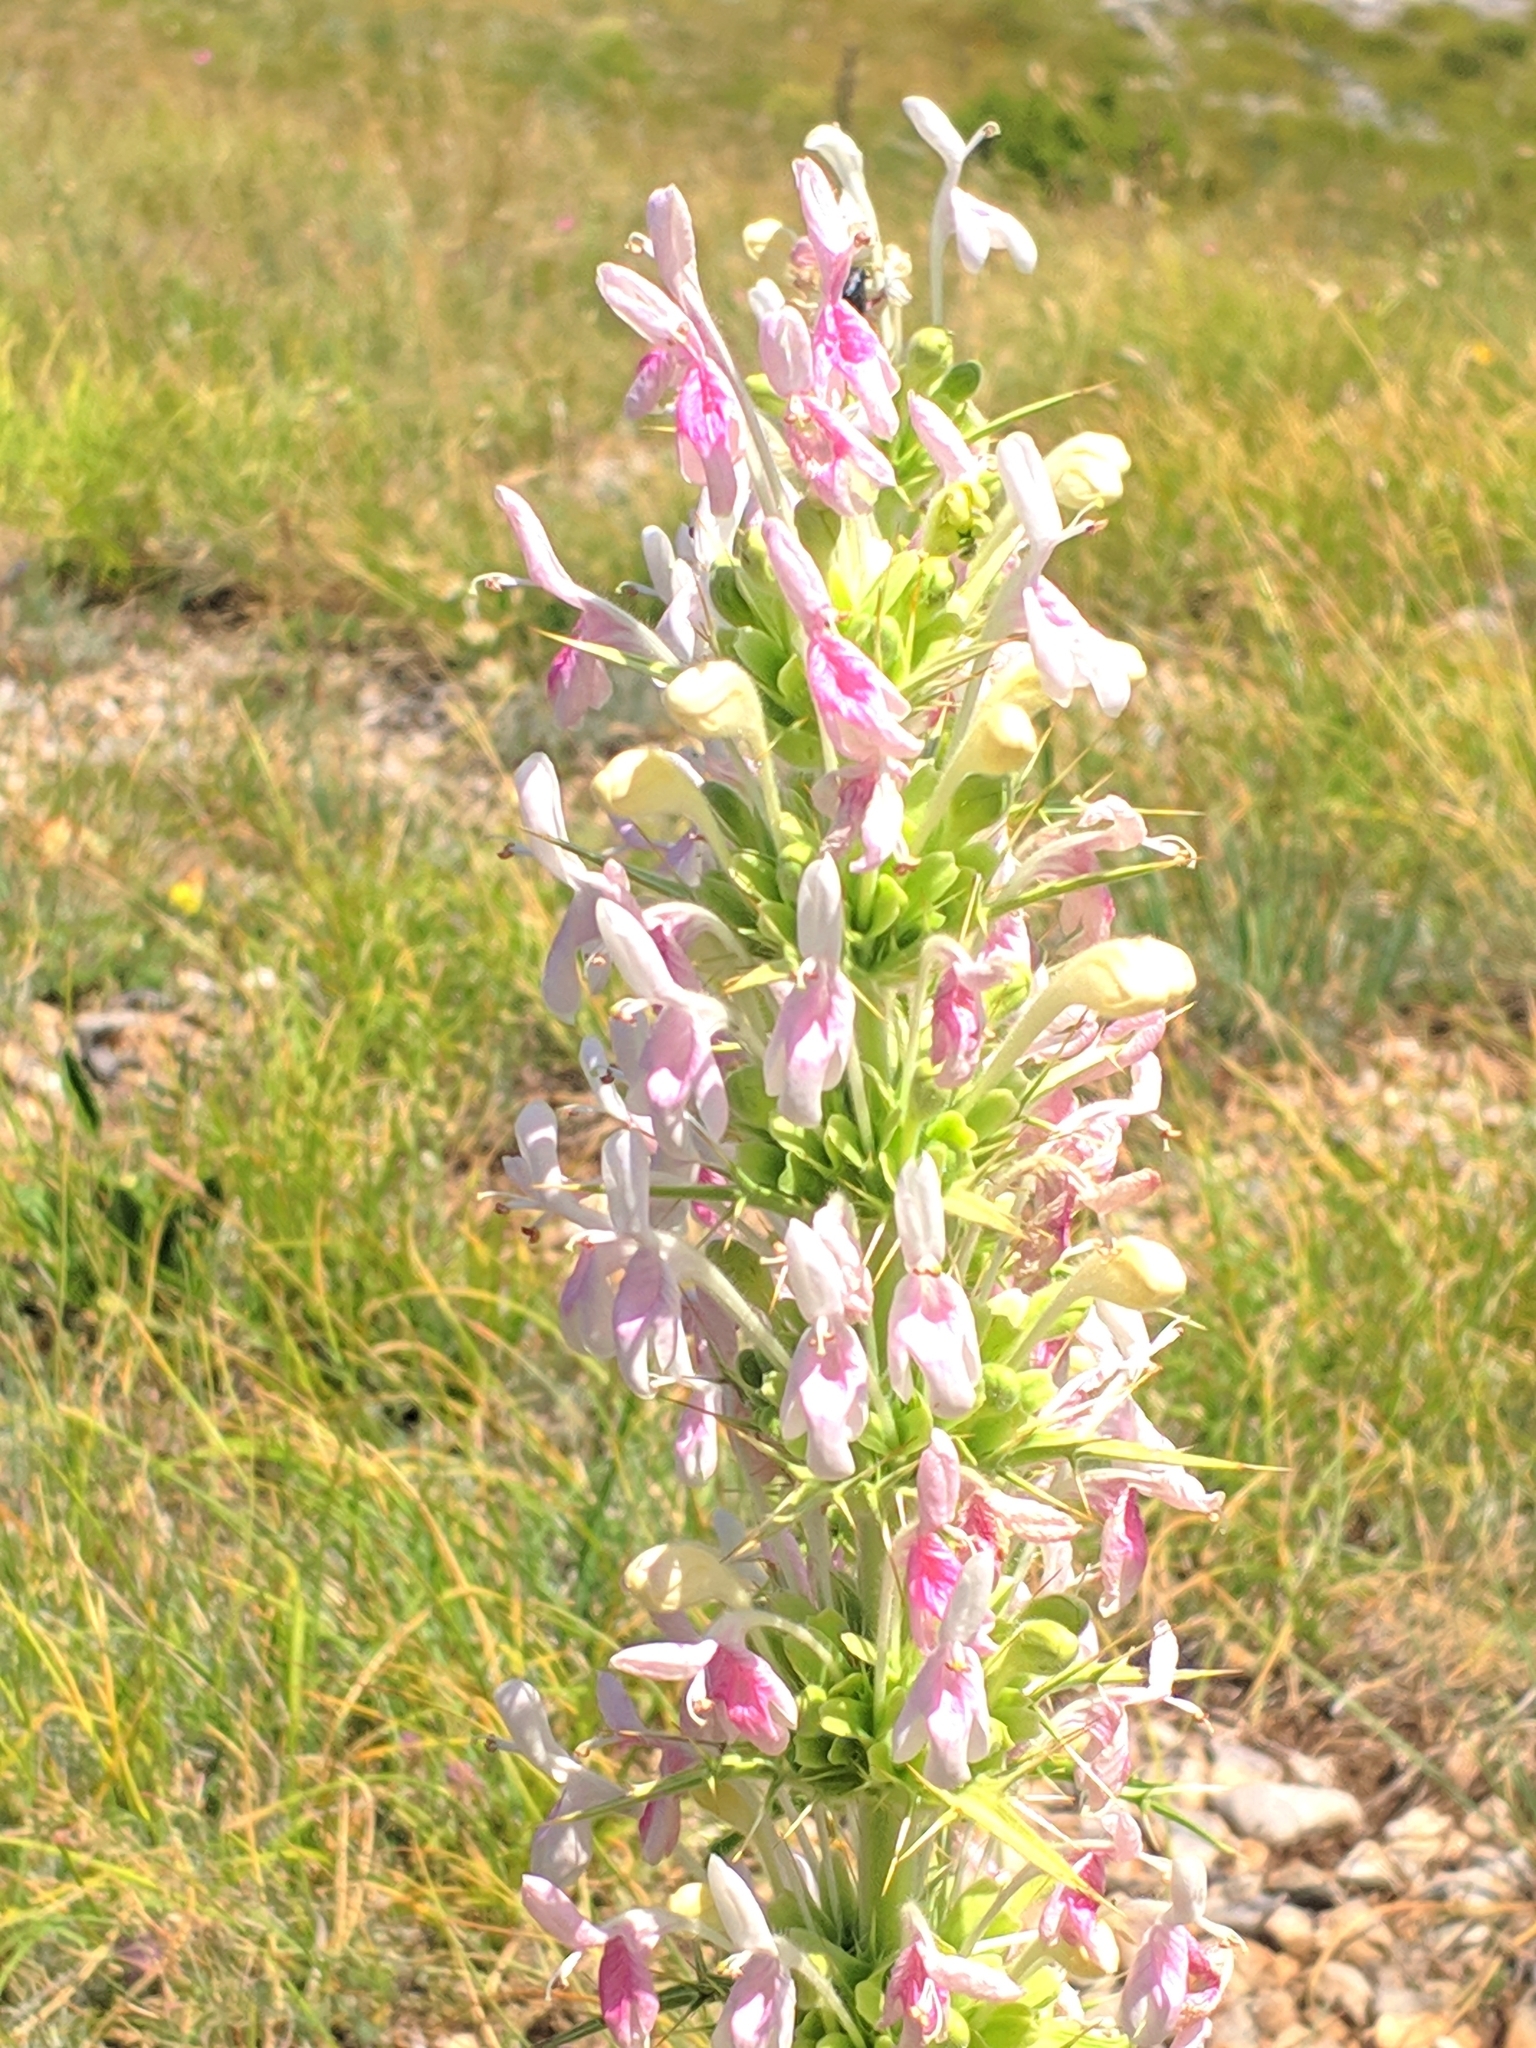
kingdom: Plantae
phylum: Tracheophyta
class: Magnoliopsida
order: Dipsacales
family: Caprifoliaceae
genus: Morina
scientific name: Morina persica
